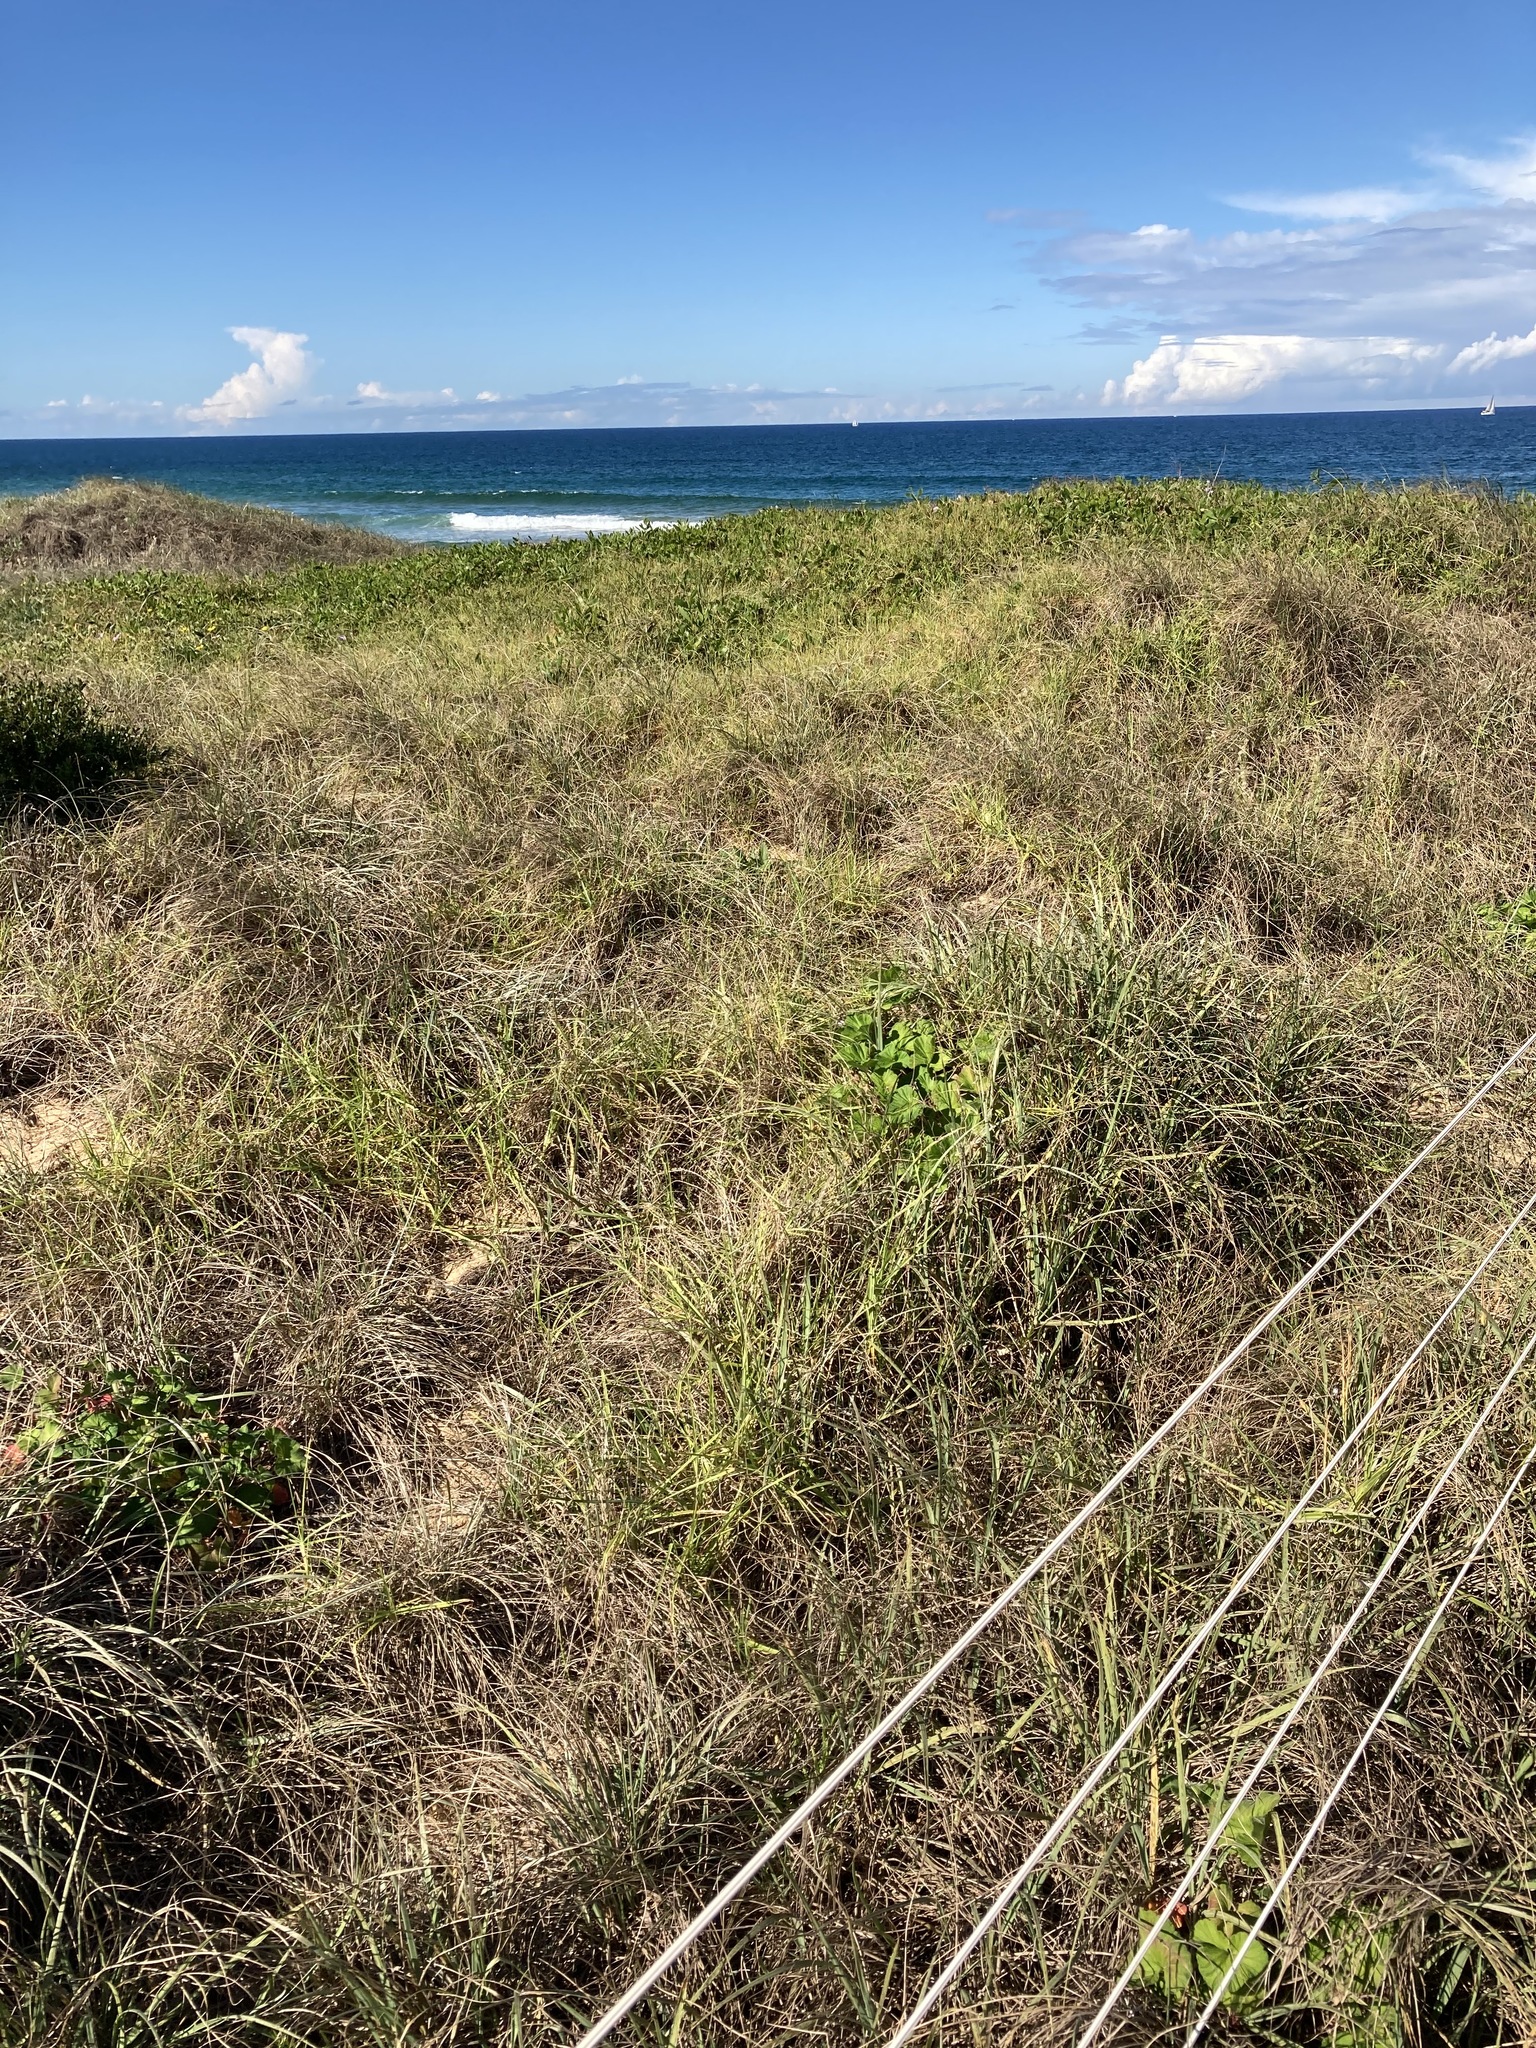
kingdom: Plantae
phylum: Tracheophyta
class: Liliopsida
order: Poales
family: Poaceae
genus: Spinifex
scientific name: Spinifex sericeus
